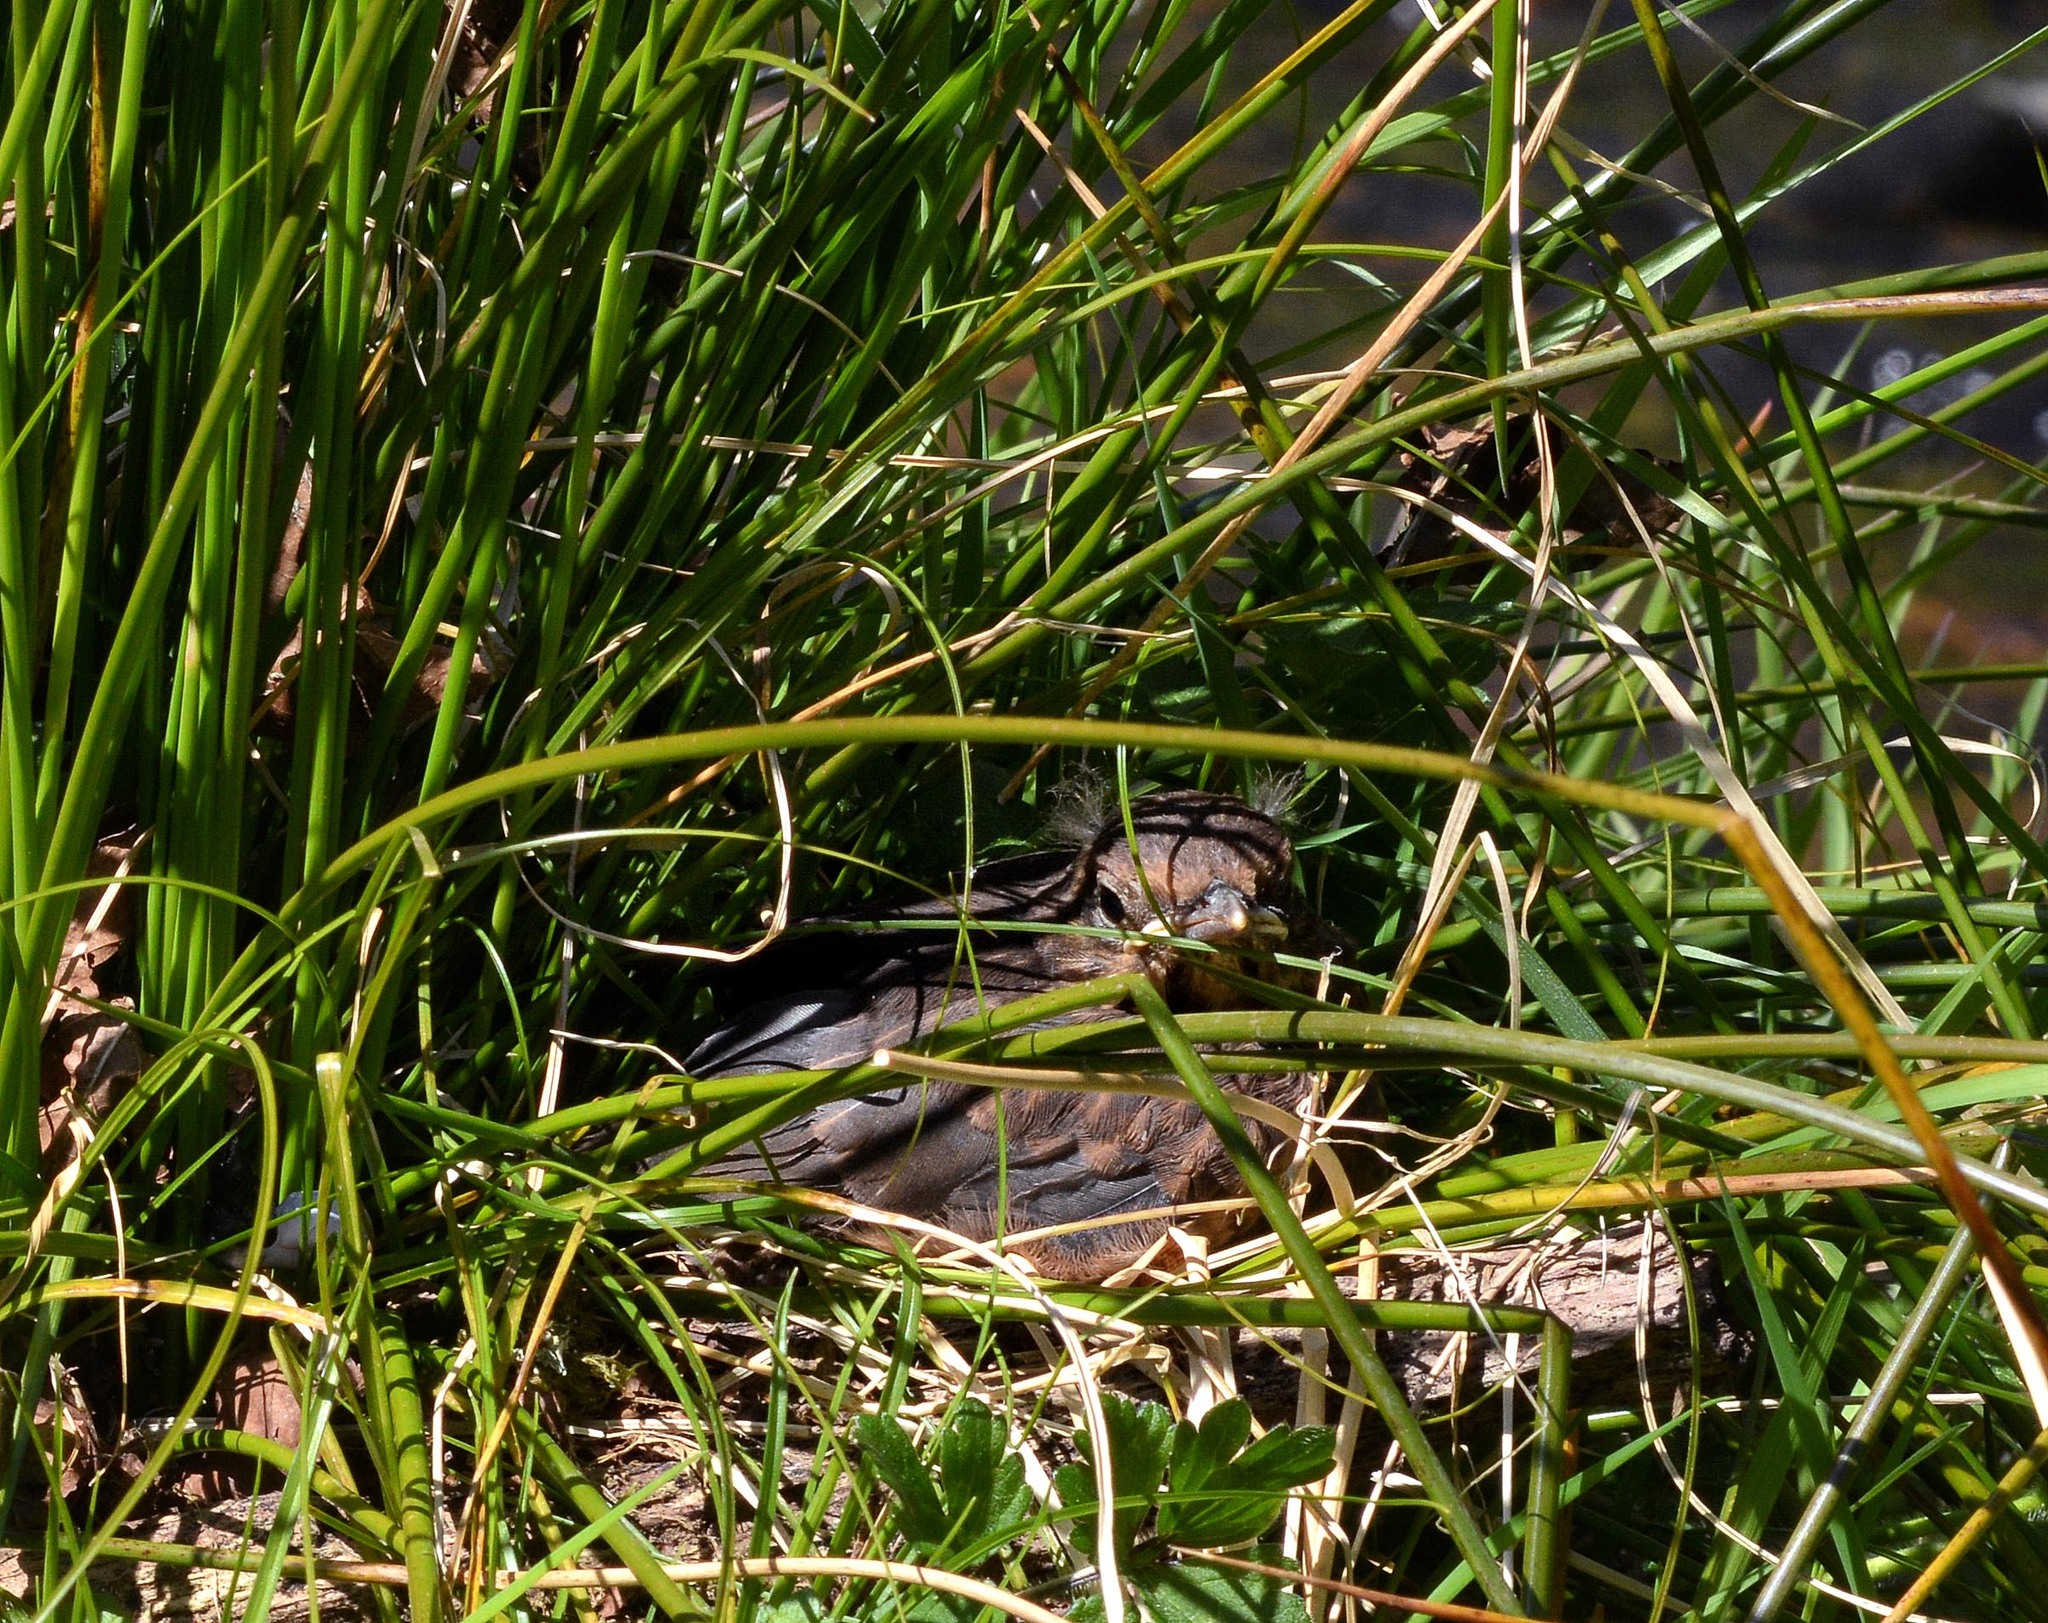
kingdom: Animalia
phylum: Chordata
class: Aves
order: Passeriformes
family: Turdidae
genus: Turdus
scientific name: Turdus merula
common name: Common blackbird
